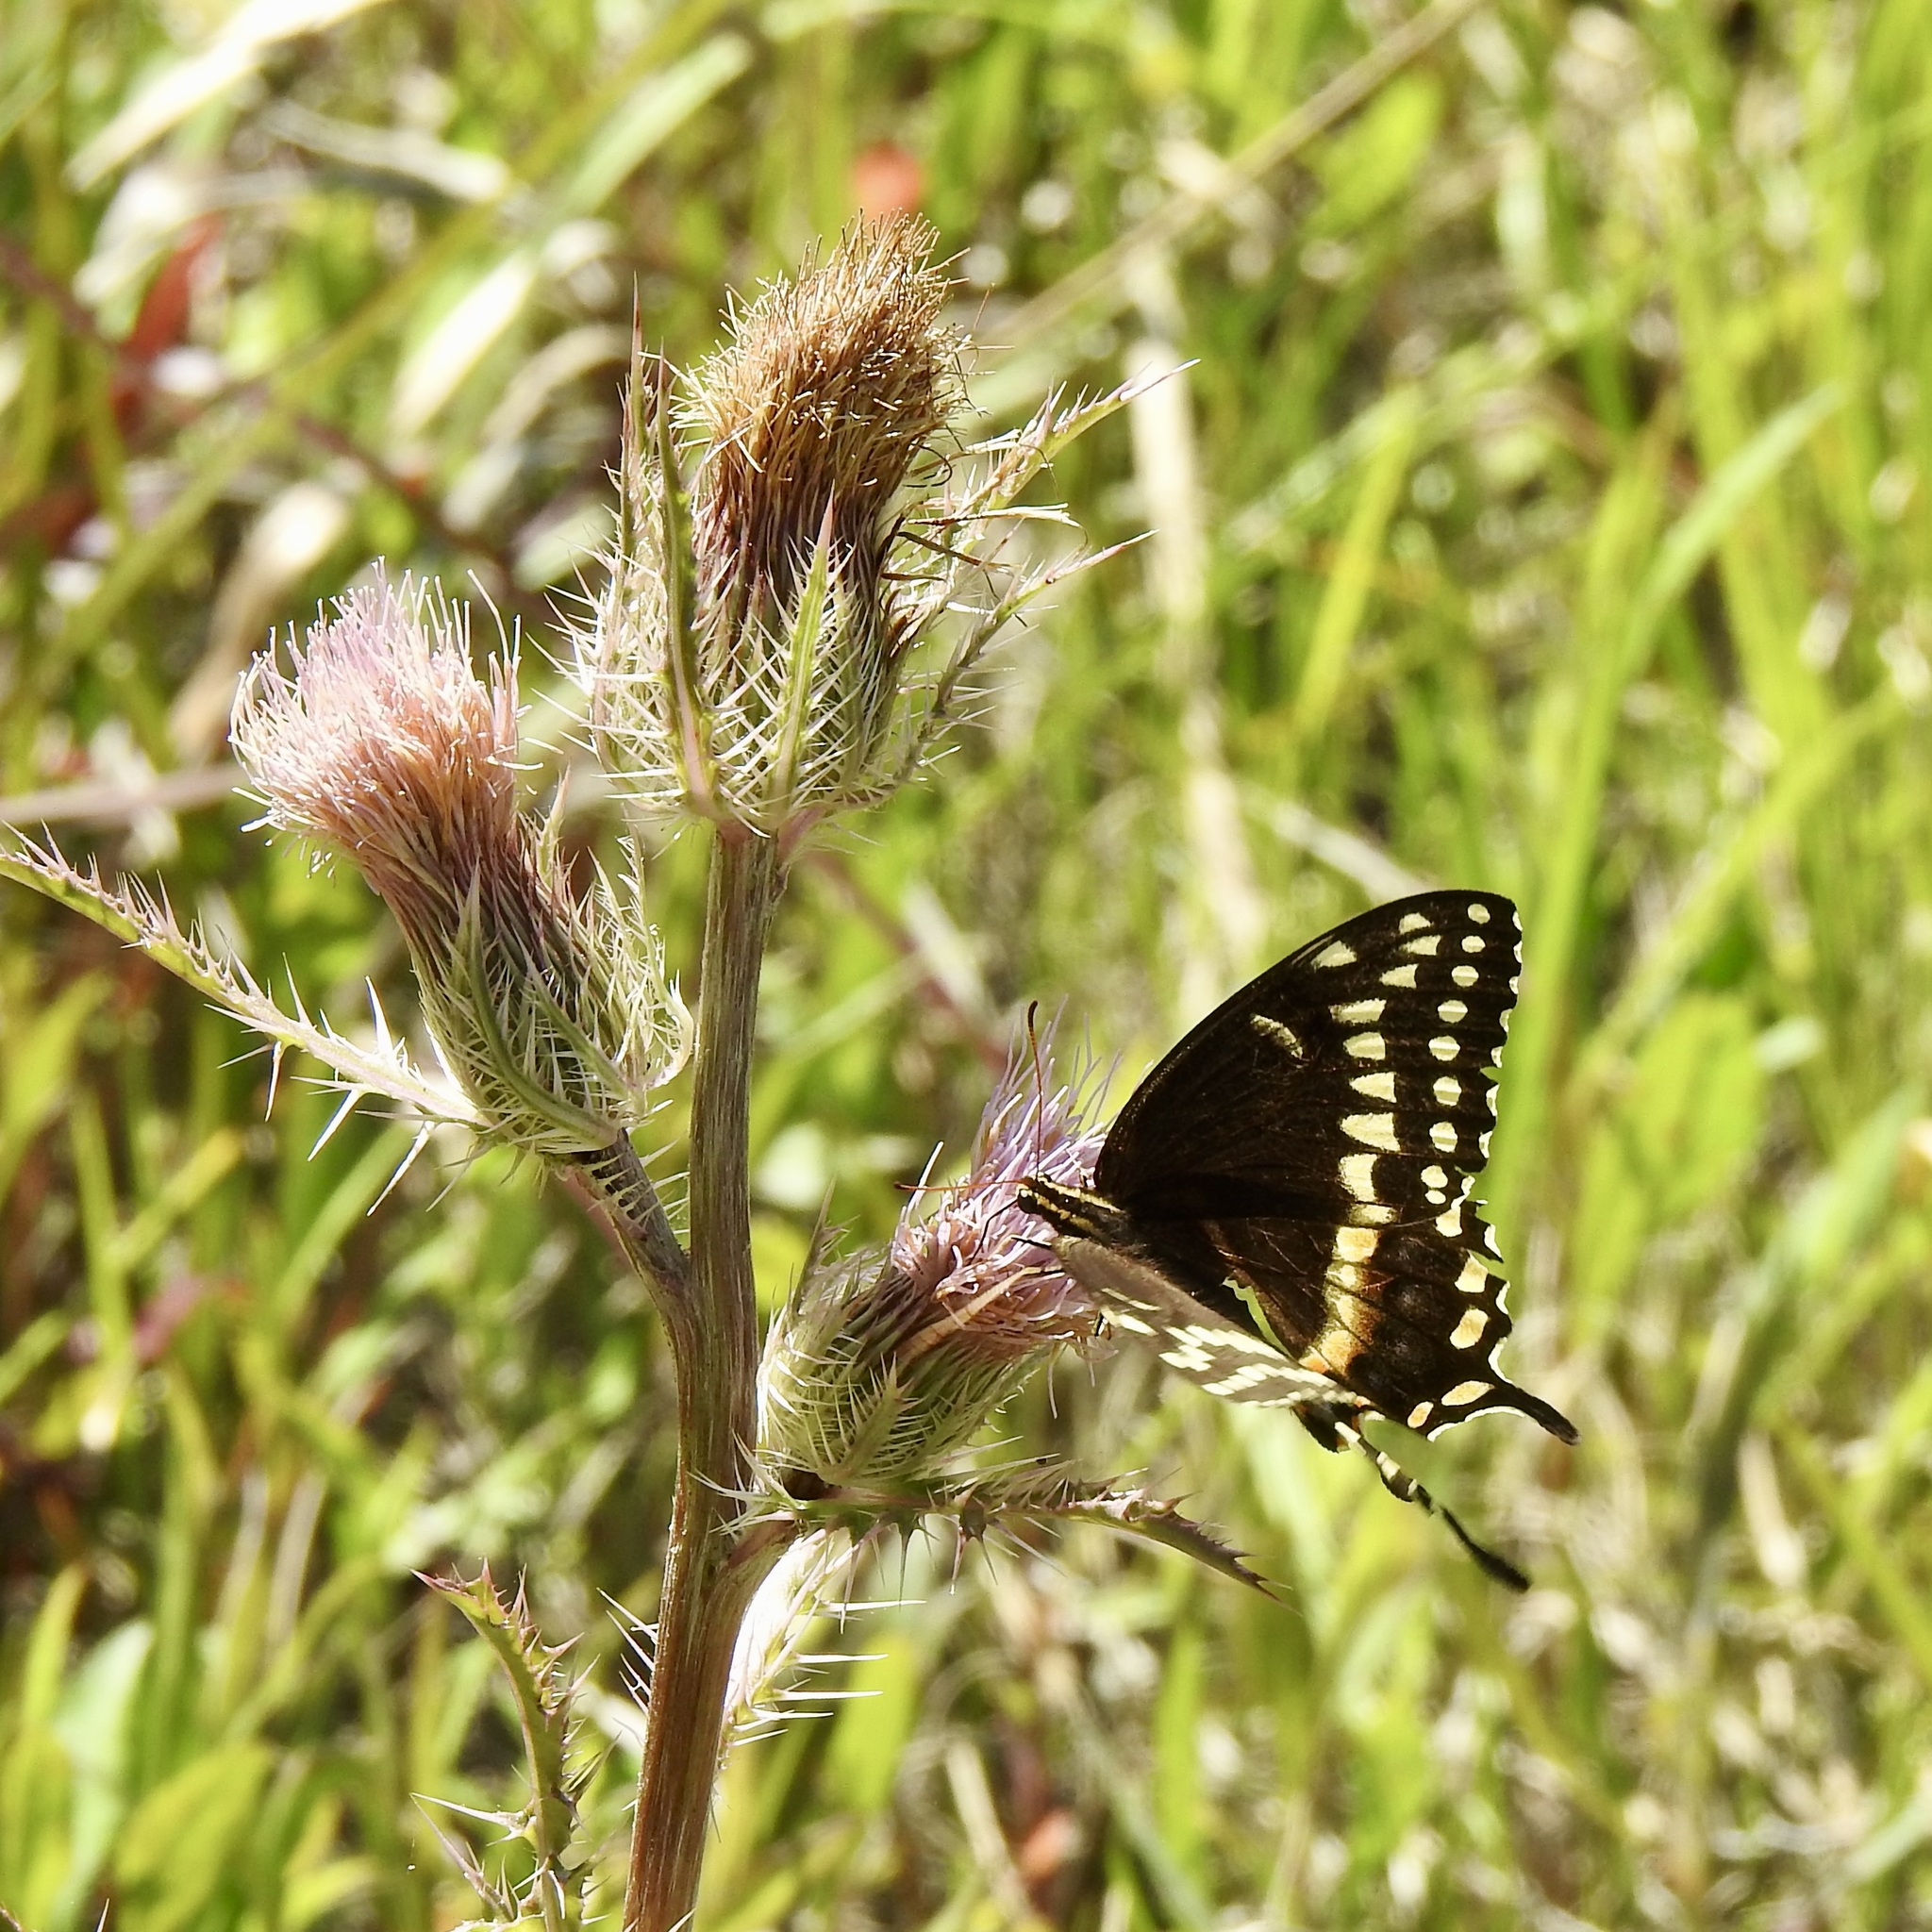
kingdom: Animalia
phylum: Arthropoda
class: Insecta
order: Lepidoptera
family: Papilionidae
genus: Papilio
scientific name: Papilio palamedes
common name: Palamedes swallowtail
